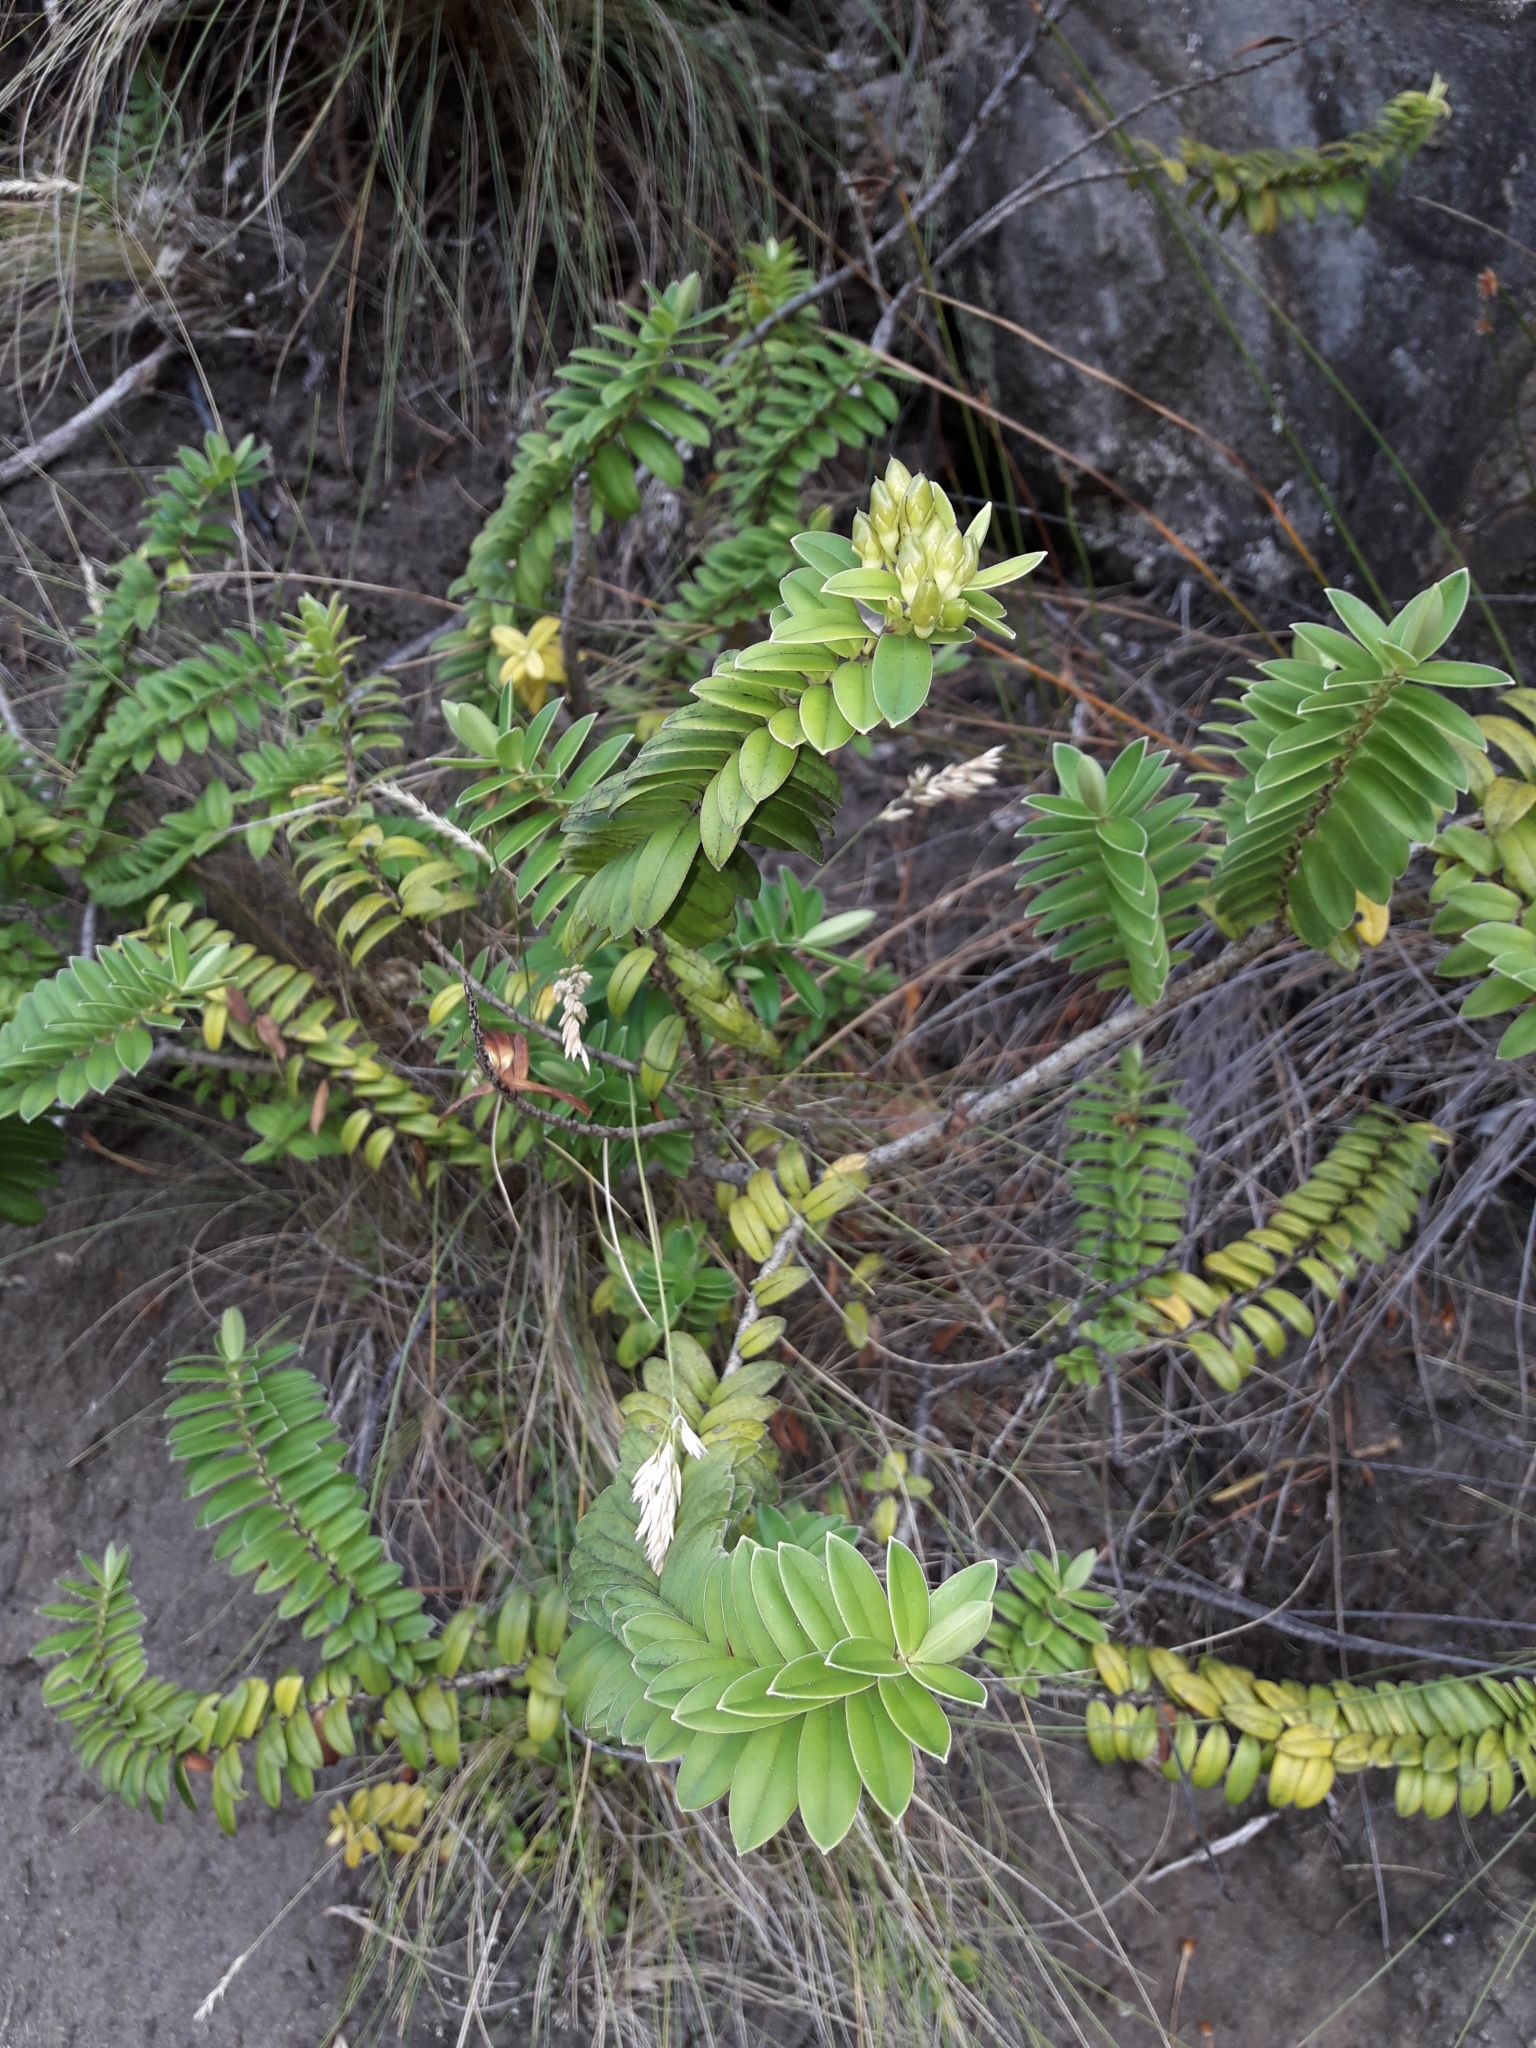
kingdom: Plantae
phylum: Tracheophyta
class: Magnoliopsida
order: Lamiales
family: Plantaginaceae
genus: Veronica
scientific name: Veronica elliptica
